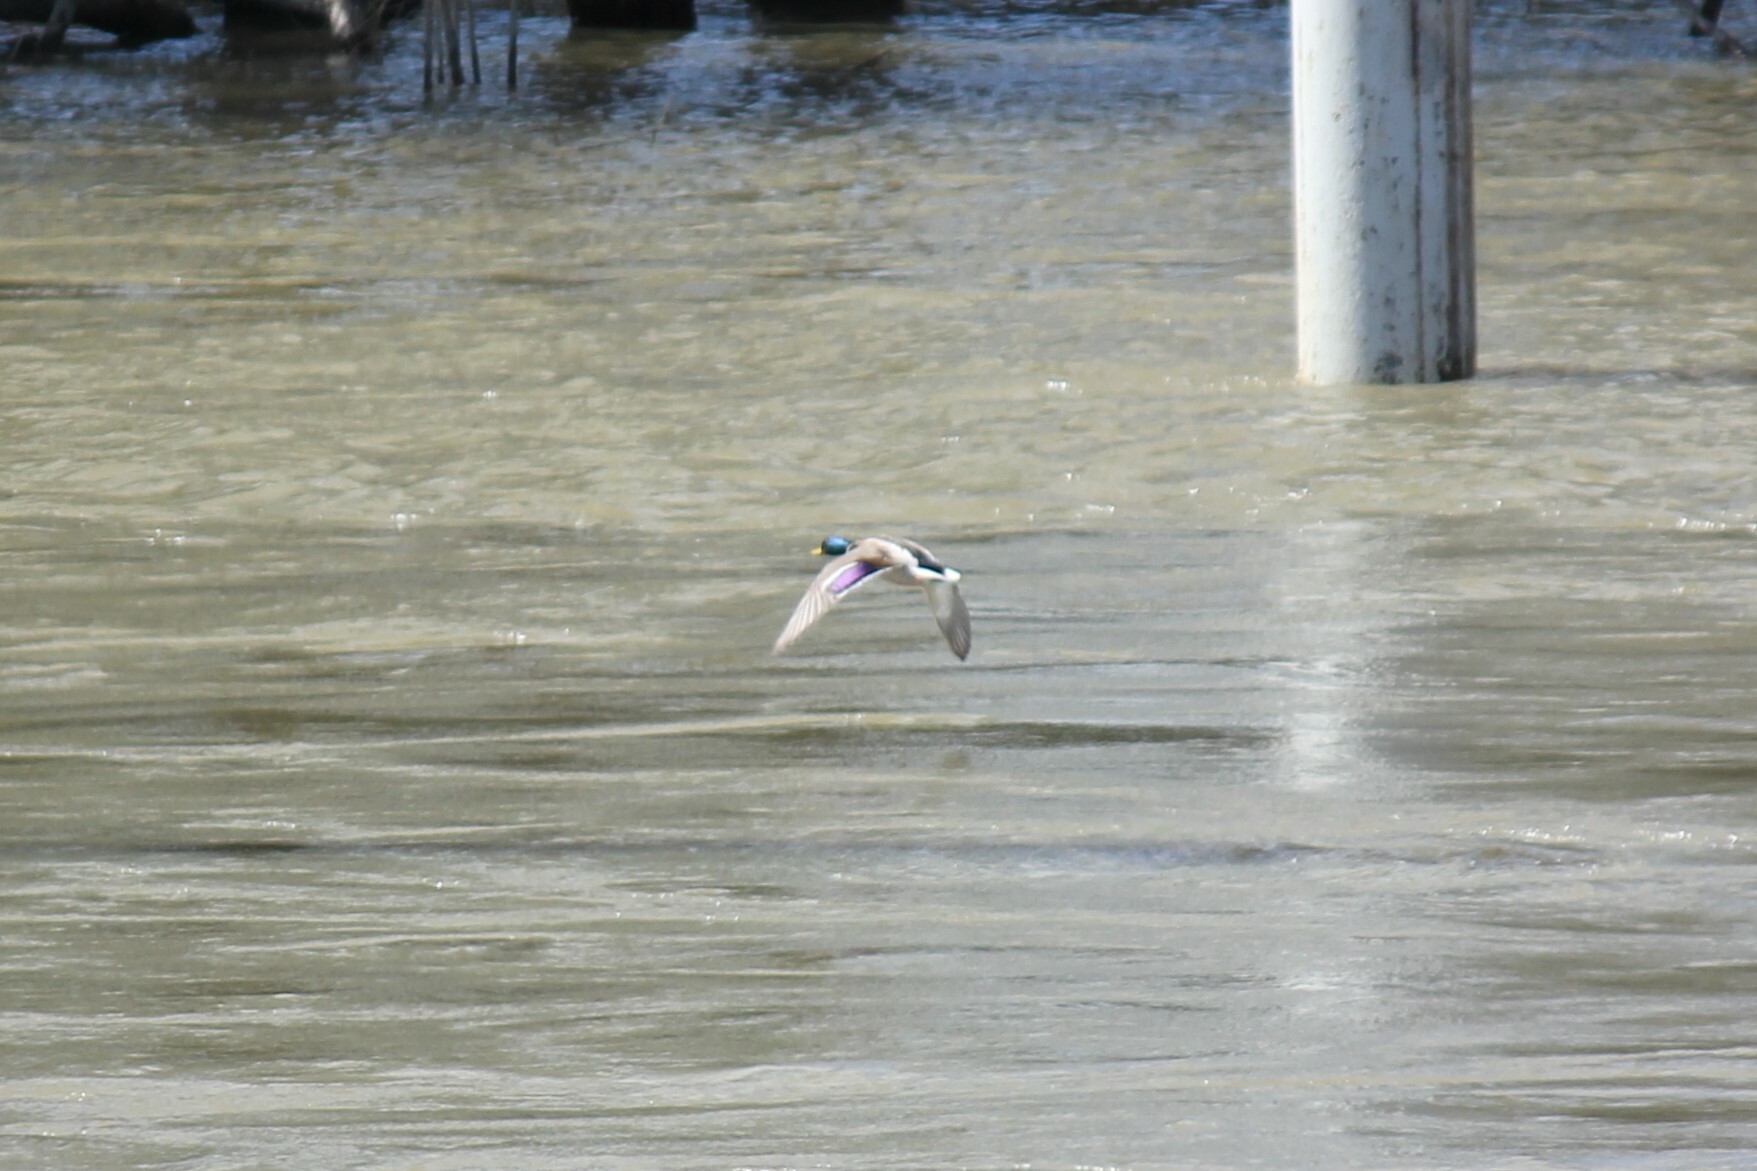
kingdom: Animalia
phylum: Chordata
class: Aves
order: Anseriformes
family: Anatidae
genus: Anas
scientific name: Anas platyrhynchos
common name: Mallard
